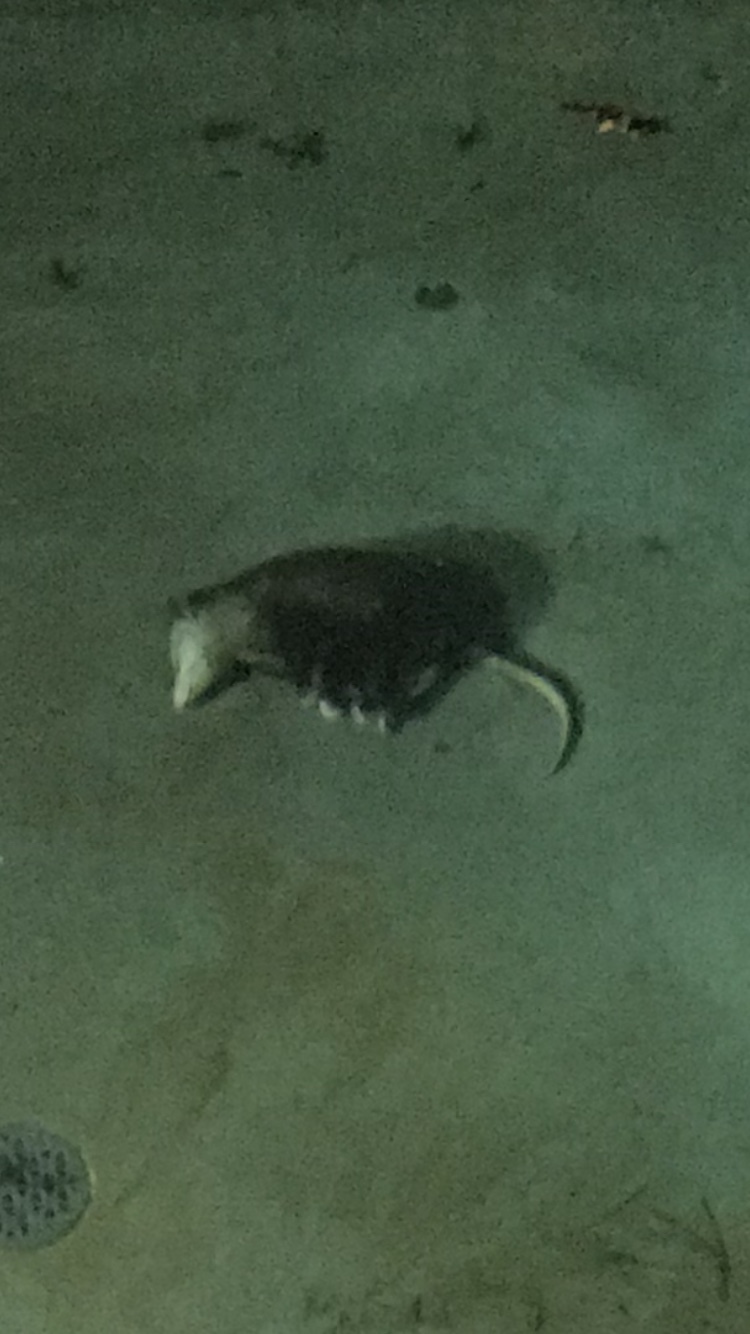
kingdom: Animalia
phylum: Chordata
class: Mammalia
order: Didelphimorphia
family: Didelphidae
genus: Didelphis
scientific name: Didelphis virginiana
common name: Virginia opossum
